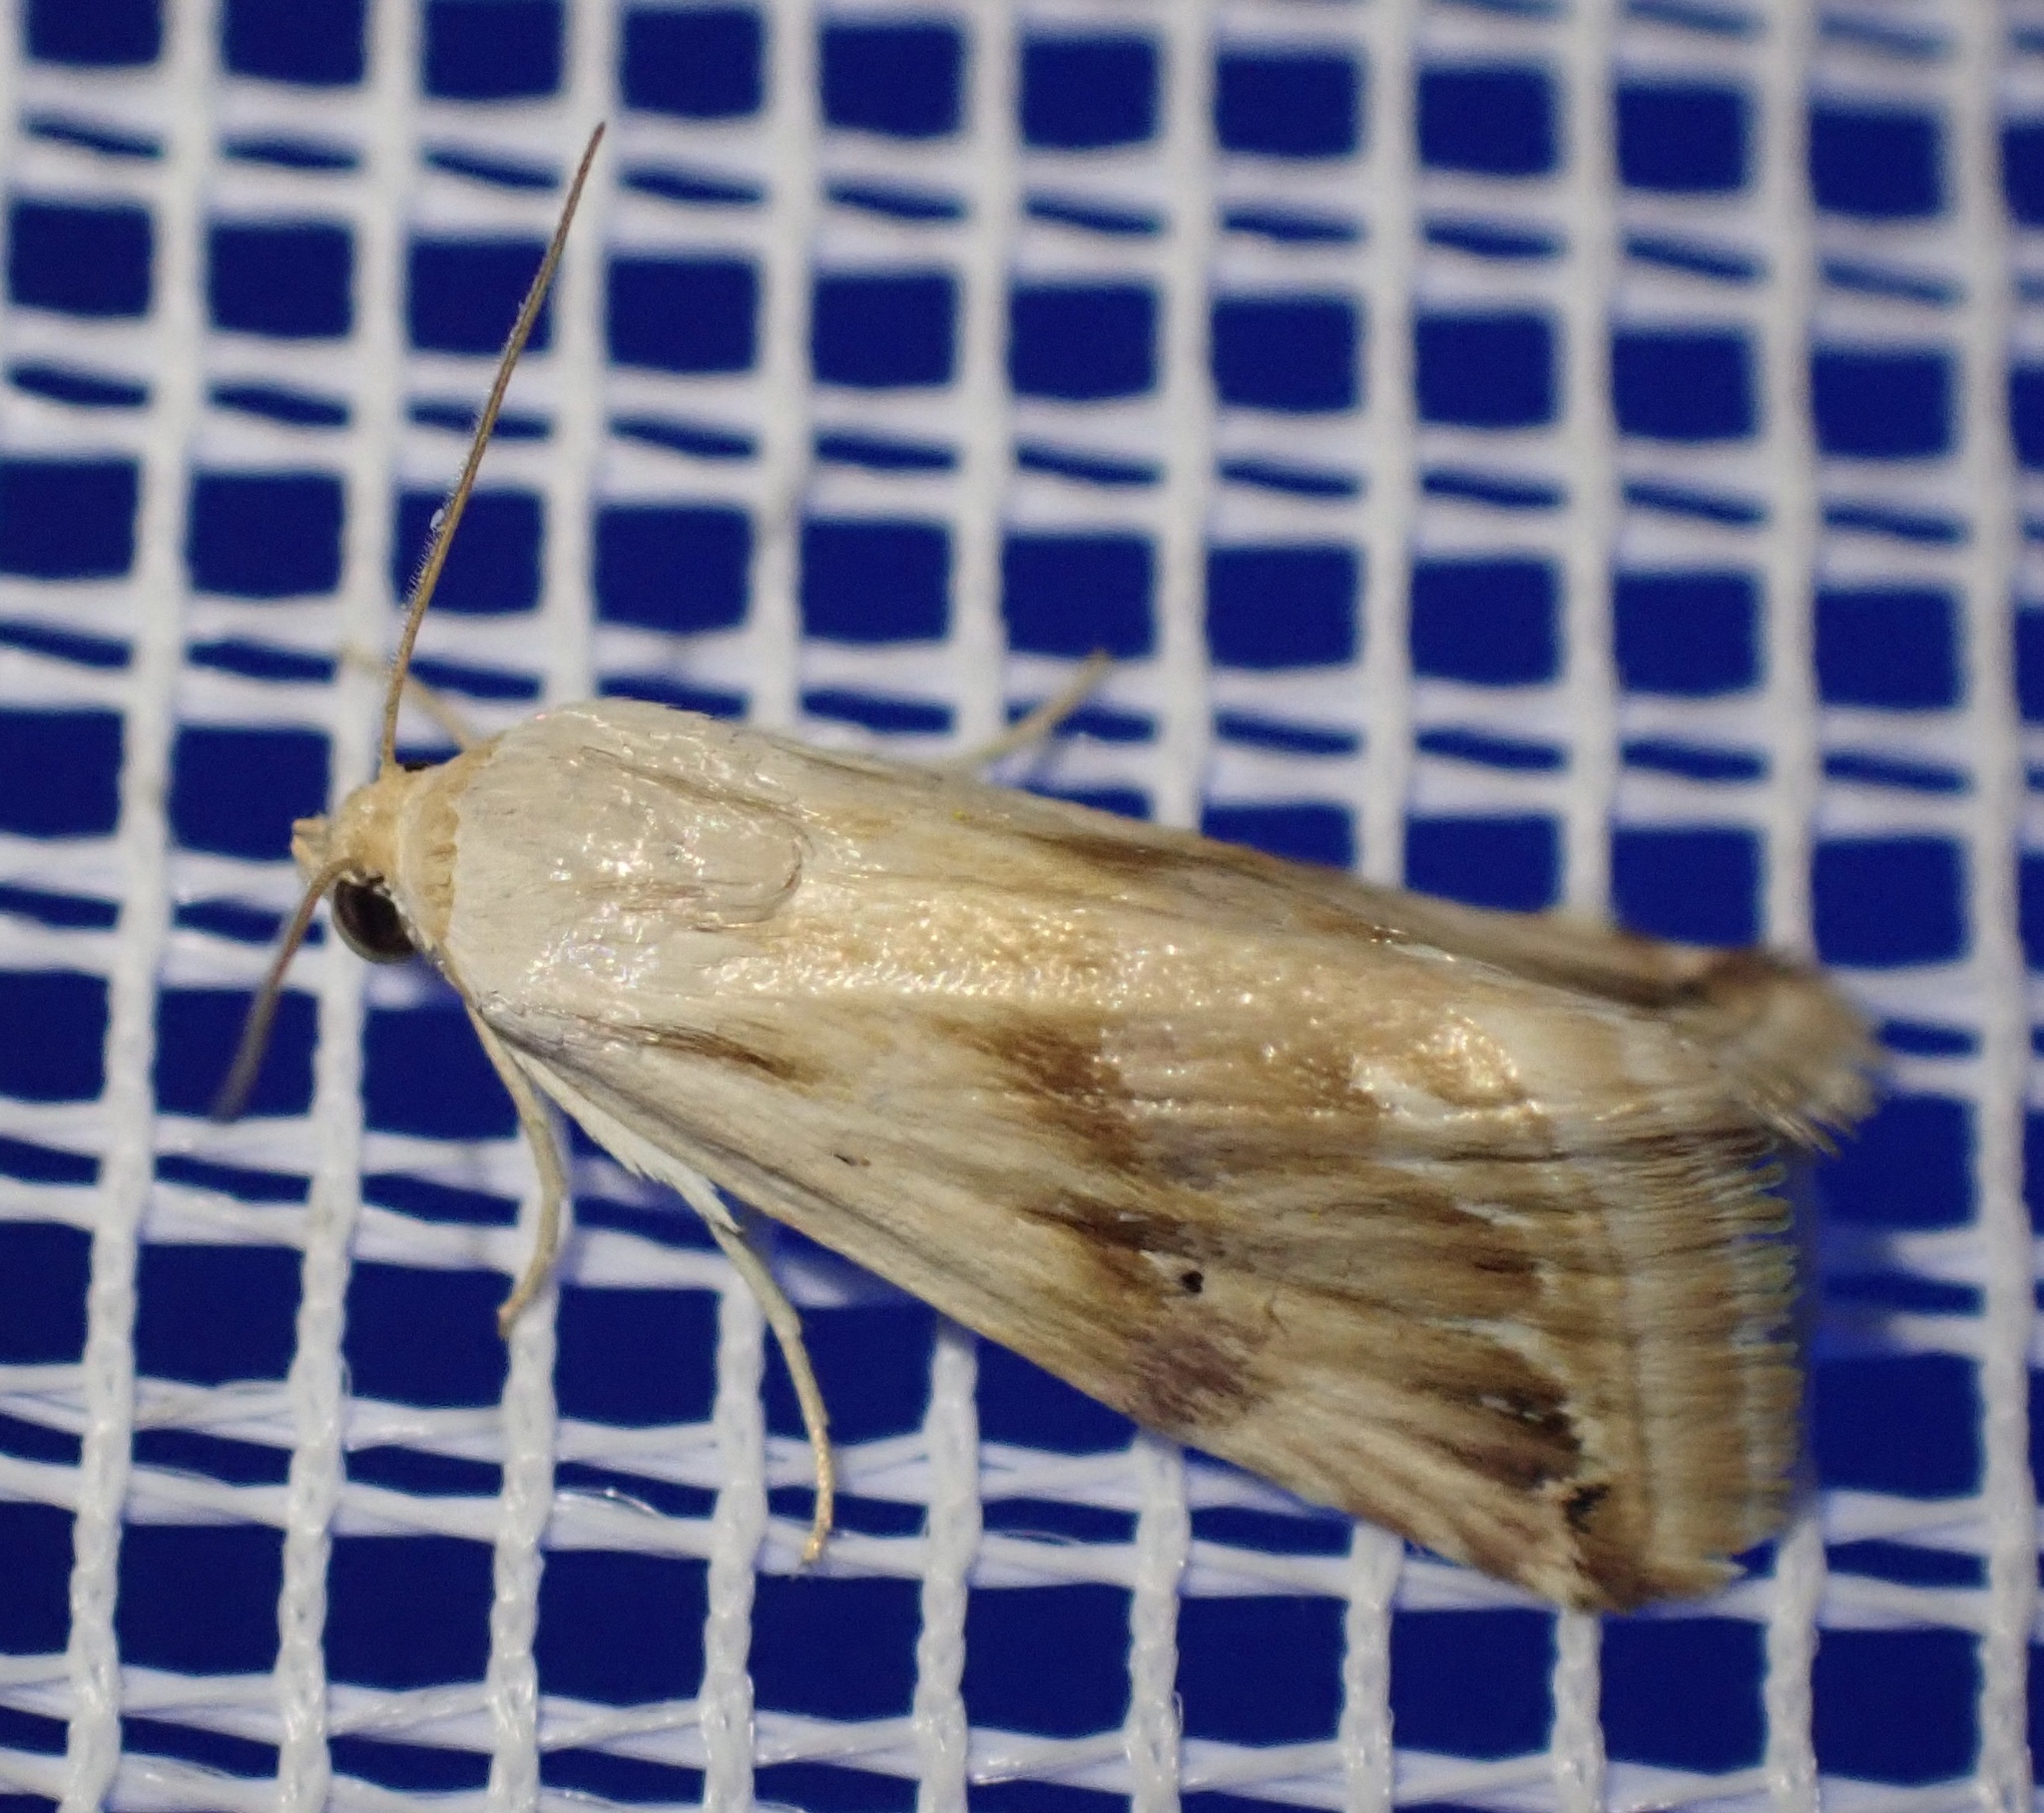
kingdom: Animalia
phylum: Arthropoda
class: Insecta
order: Lepidoptera
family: Noctuidae
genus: Eublemma
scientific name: Eublemma ostrina
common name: Purple marbled
